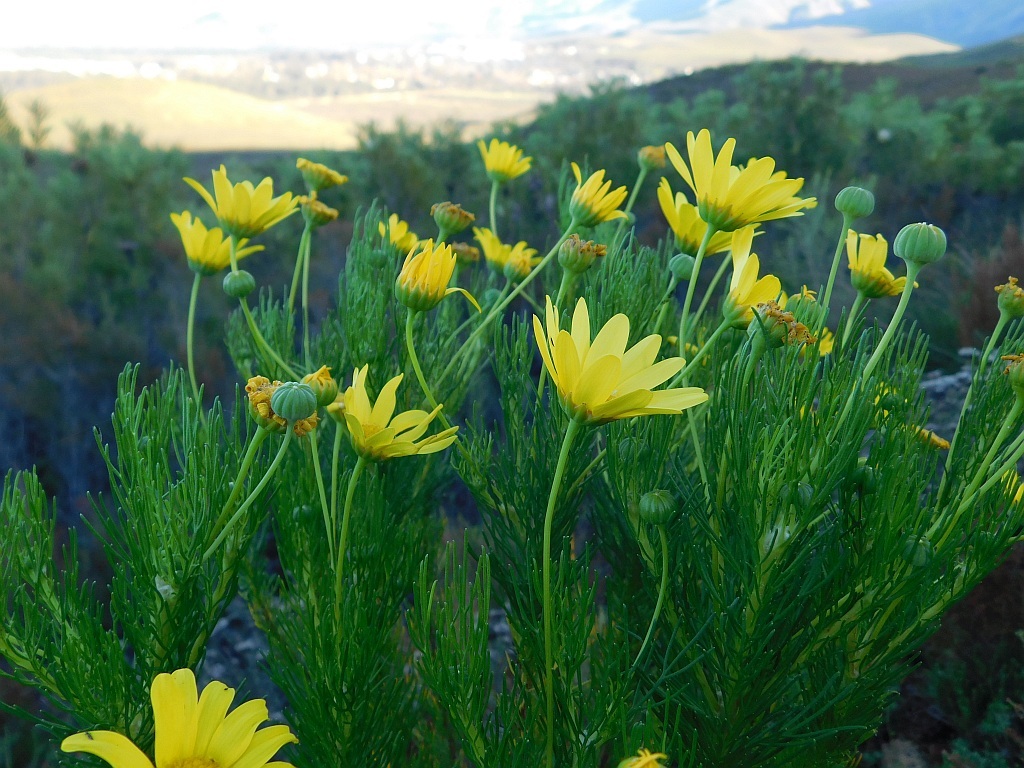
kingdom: Plantae
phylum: Tracheophyta
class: Magnoliopsida
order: Asterales
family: Asteraceae
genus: Euryops
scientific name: Euryops abrotanifolius
